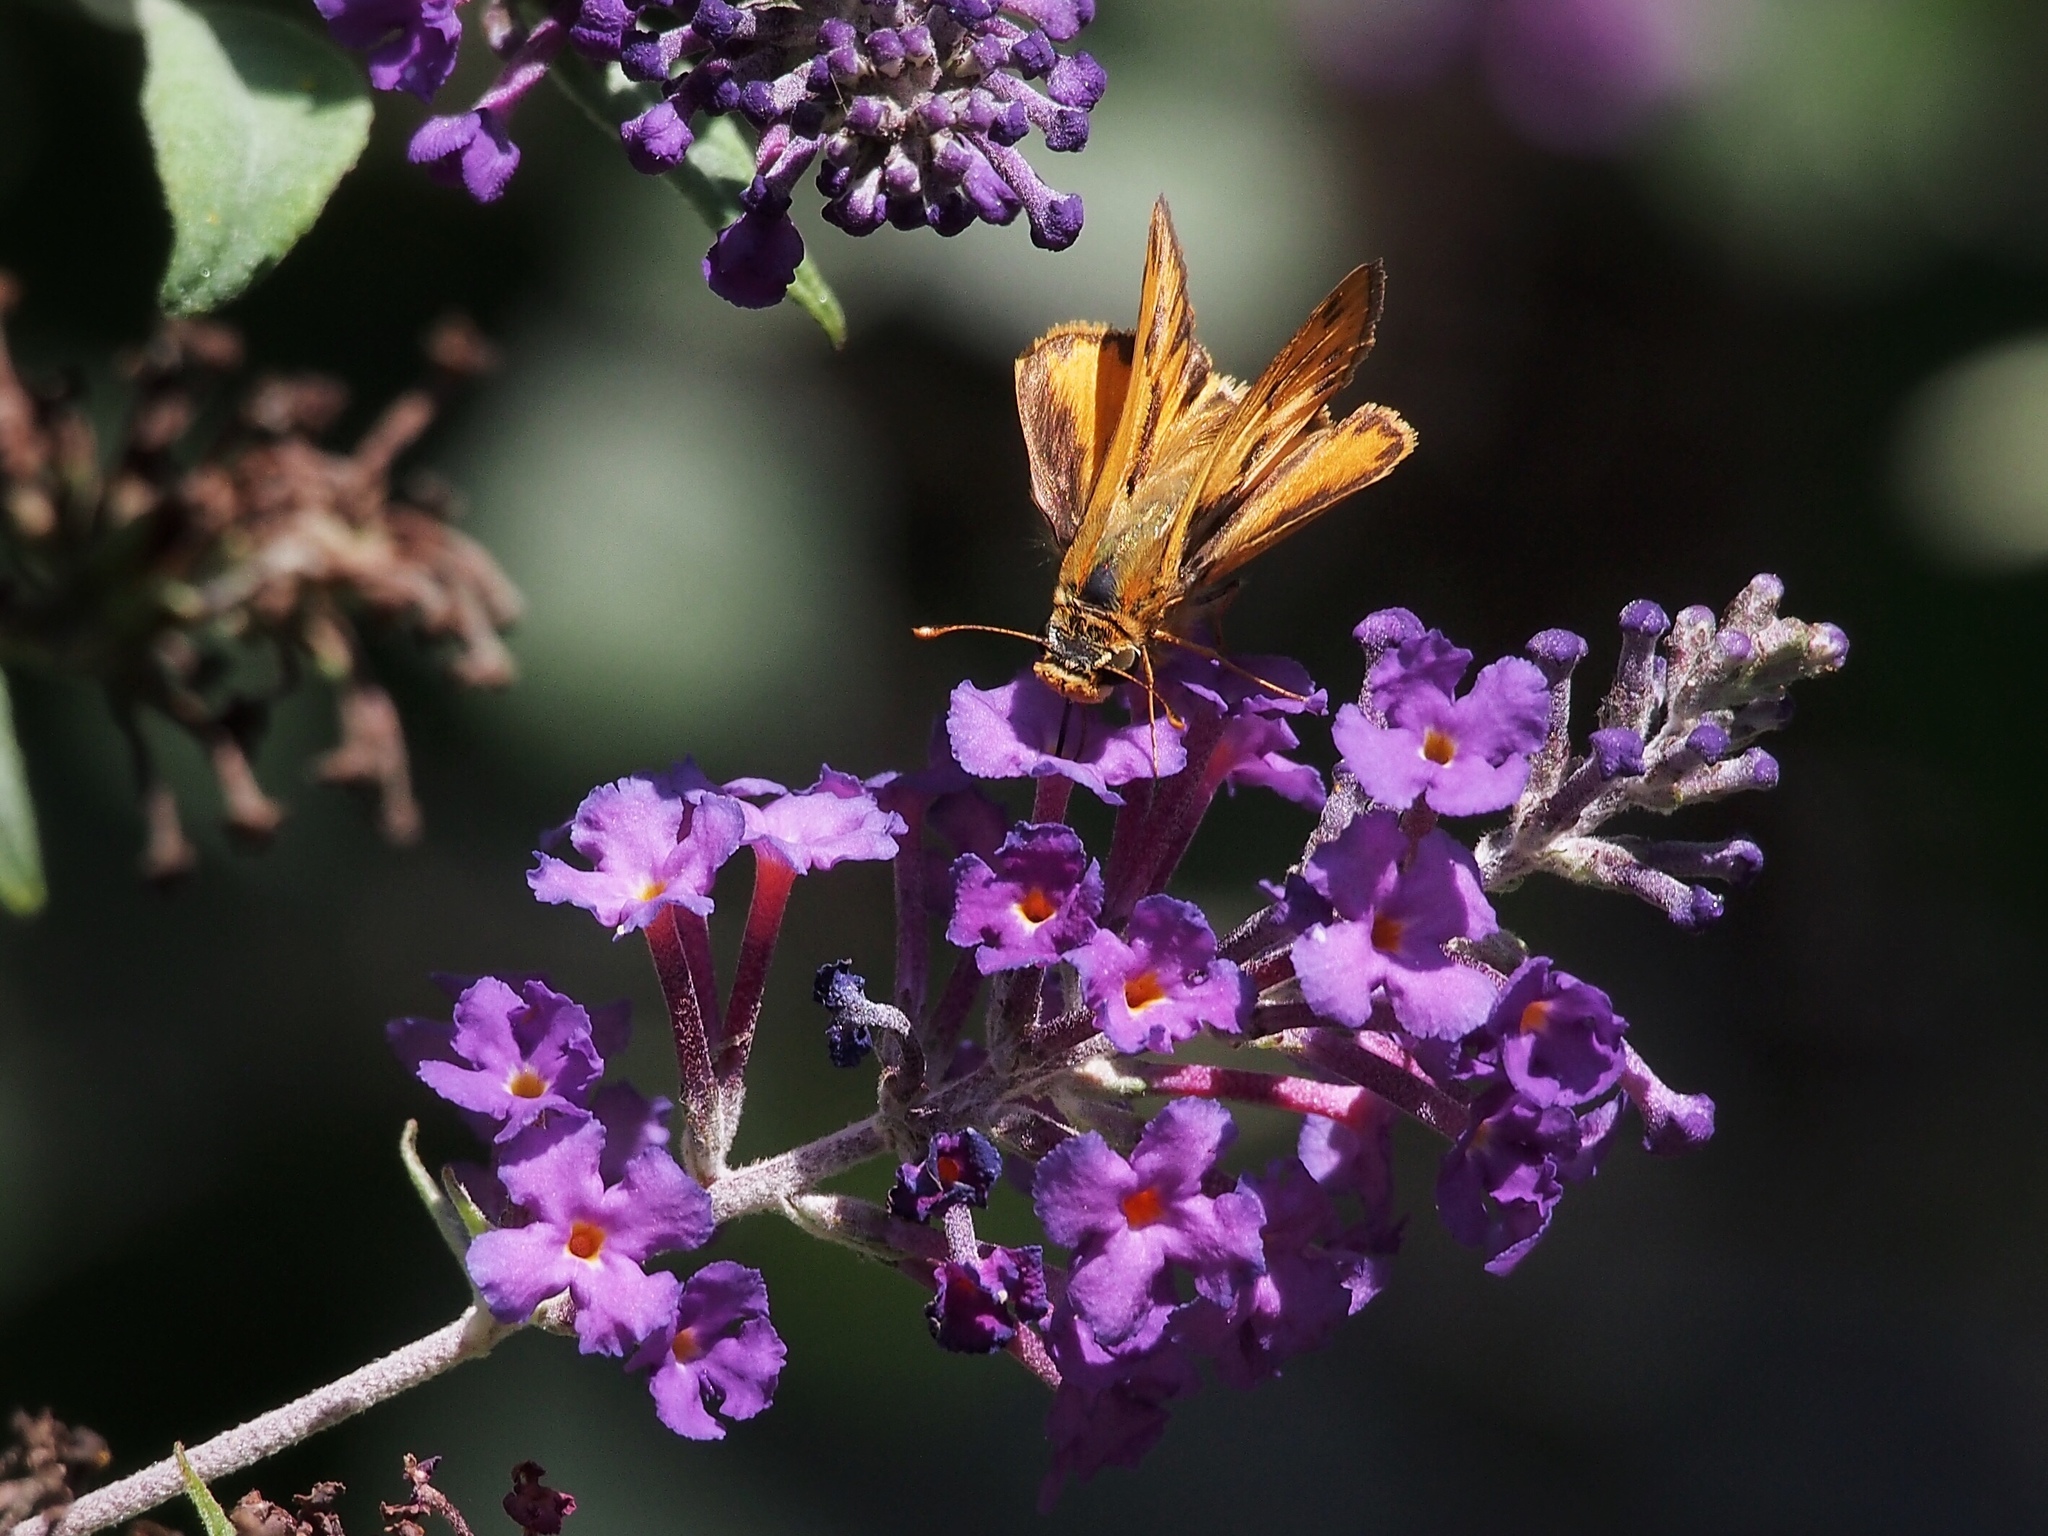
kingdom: Animalia
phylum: Arthropoda
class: Insecta
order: Lepidoptera
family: Hesperiidae
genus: Hylephila
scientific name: Hylephila phyleus
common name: Fiery skipper
